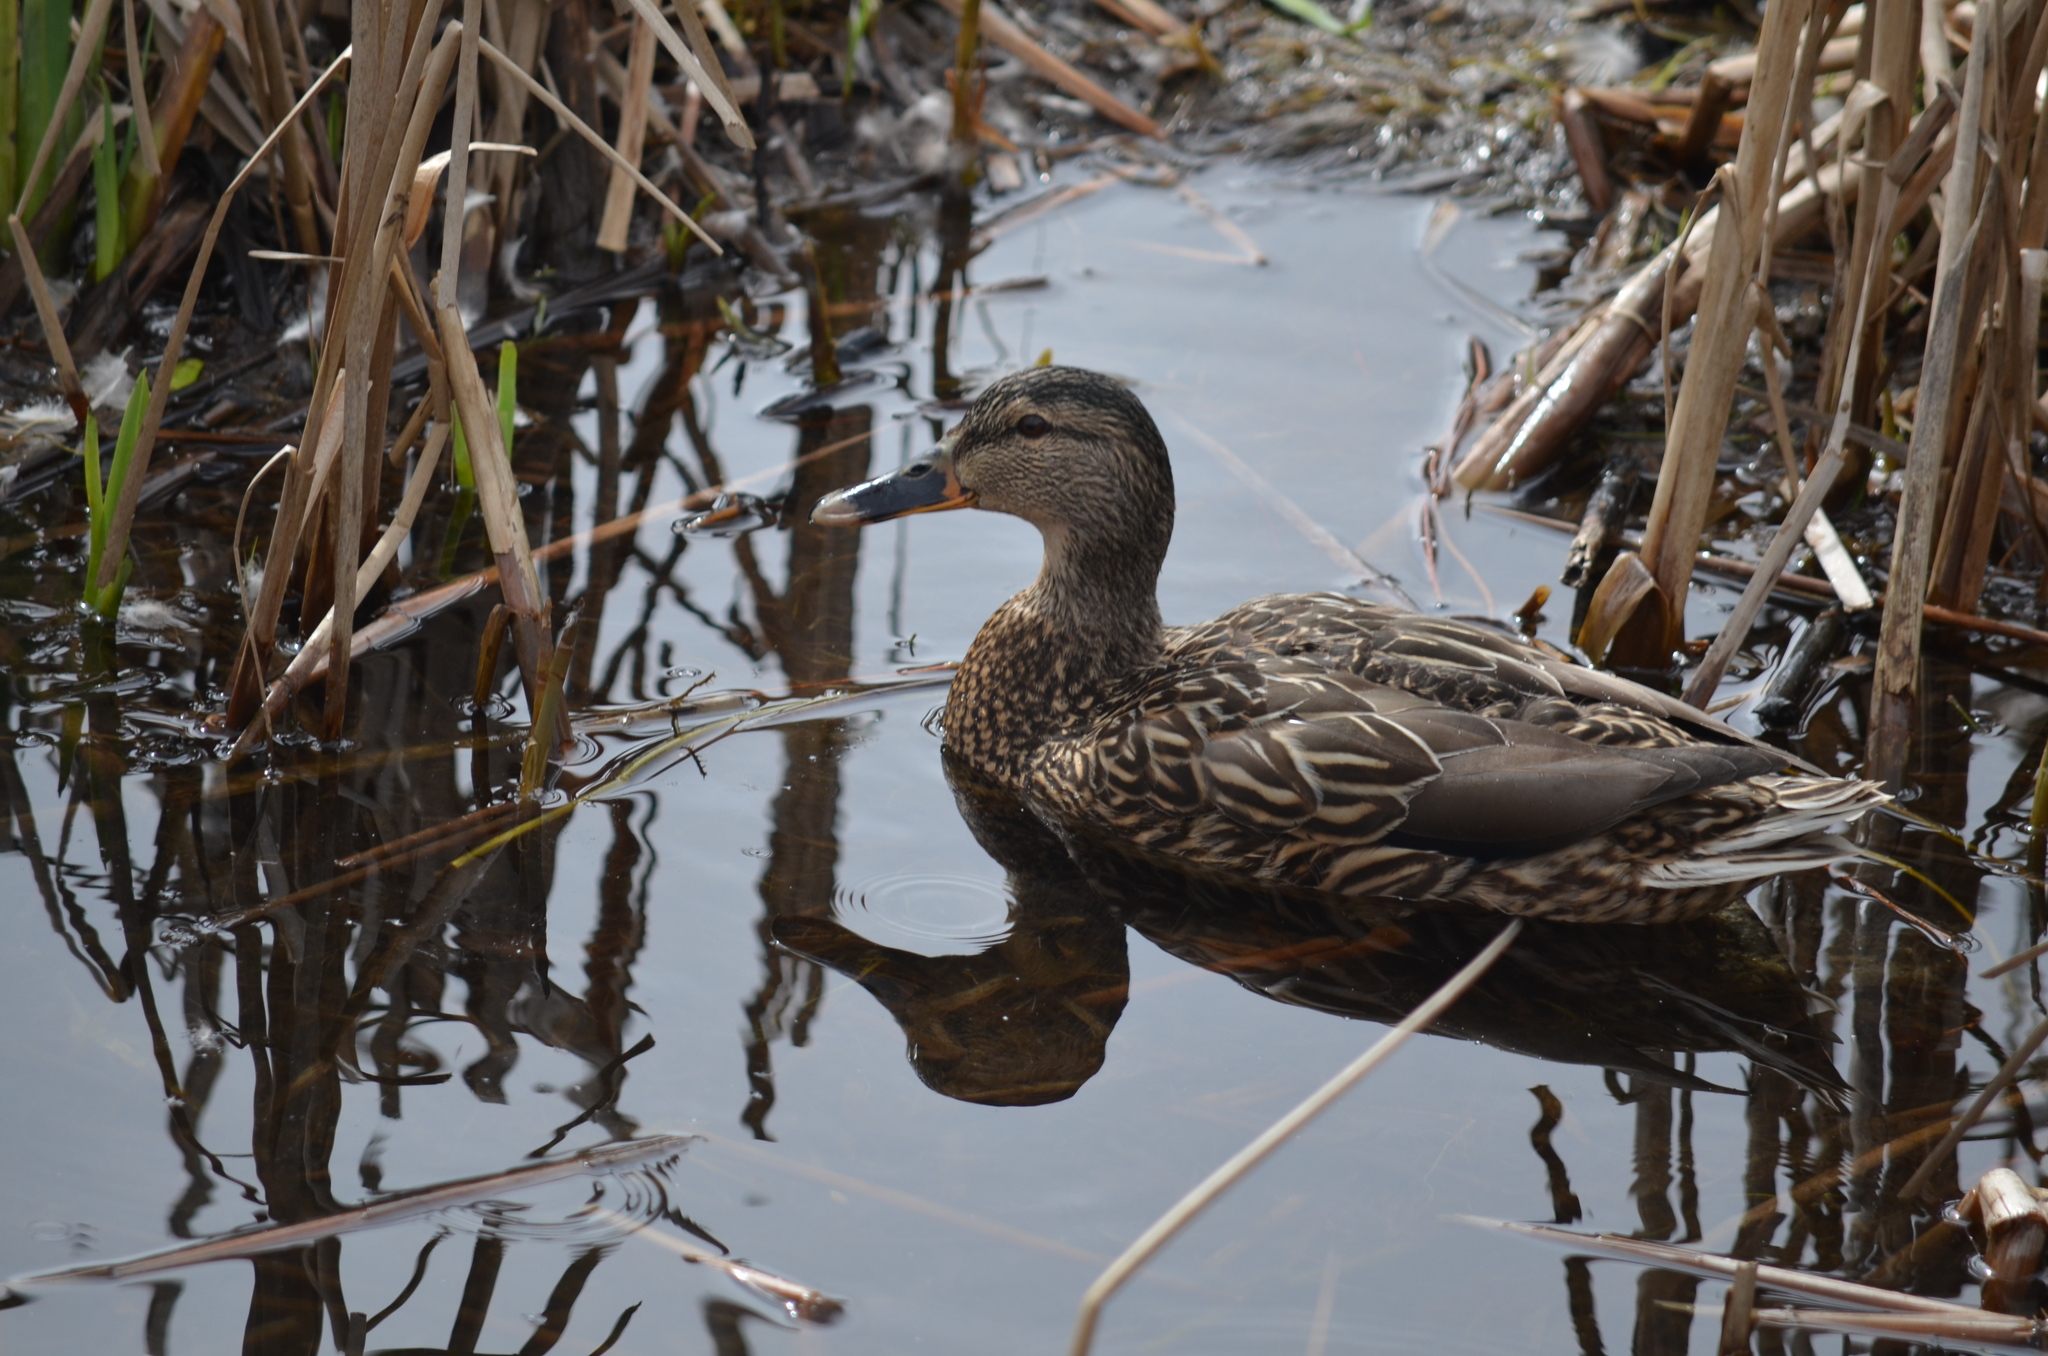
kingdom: Animalia
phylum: Chordata
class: Aves
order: Anseriformes
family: Anatidae
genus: Anas
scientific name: Anas platyrhynchos
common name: Mallard
